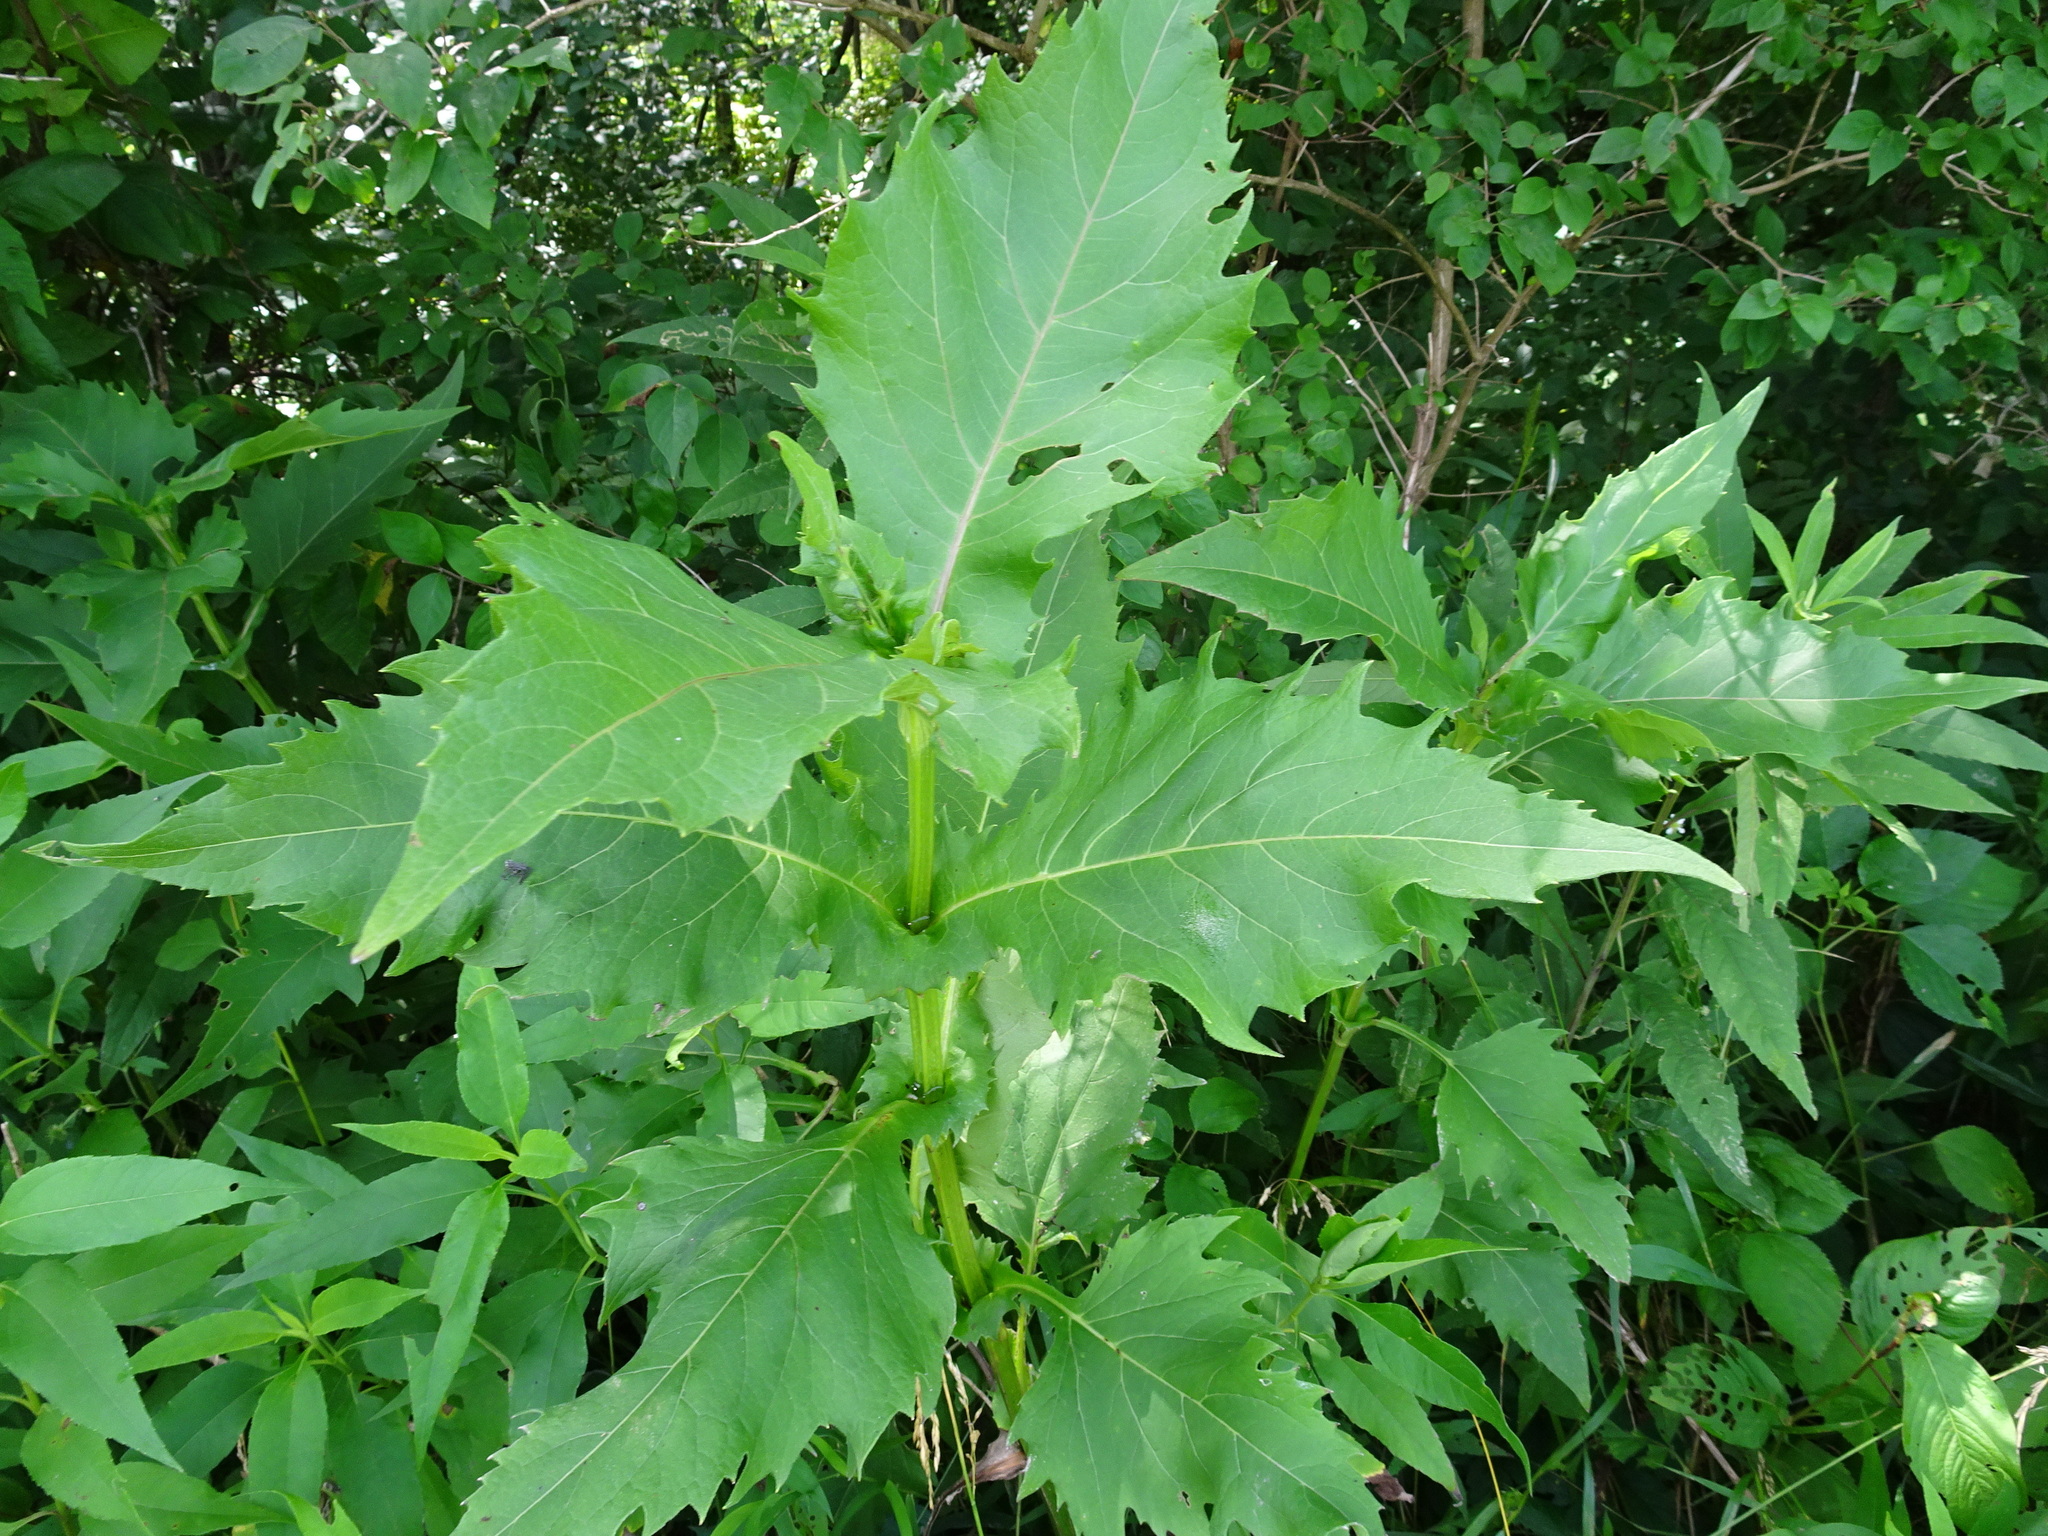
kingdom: Plantae
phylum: Tracheophyta
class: Magnoliopsida
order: Asterales
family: Asteraceae
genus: Silphium
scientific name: Silphium perfoliatum
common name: Cup-plant
